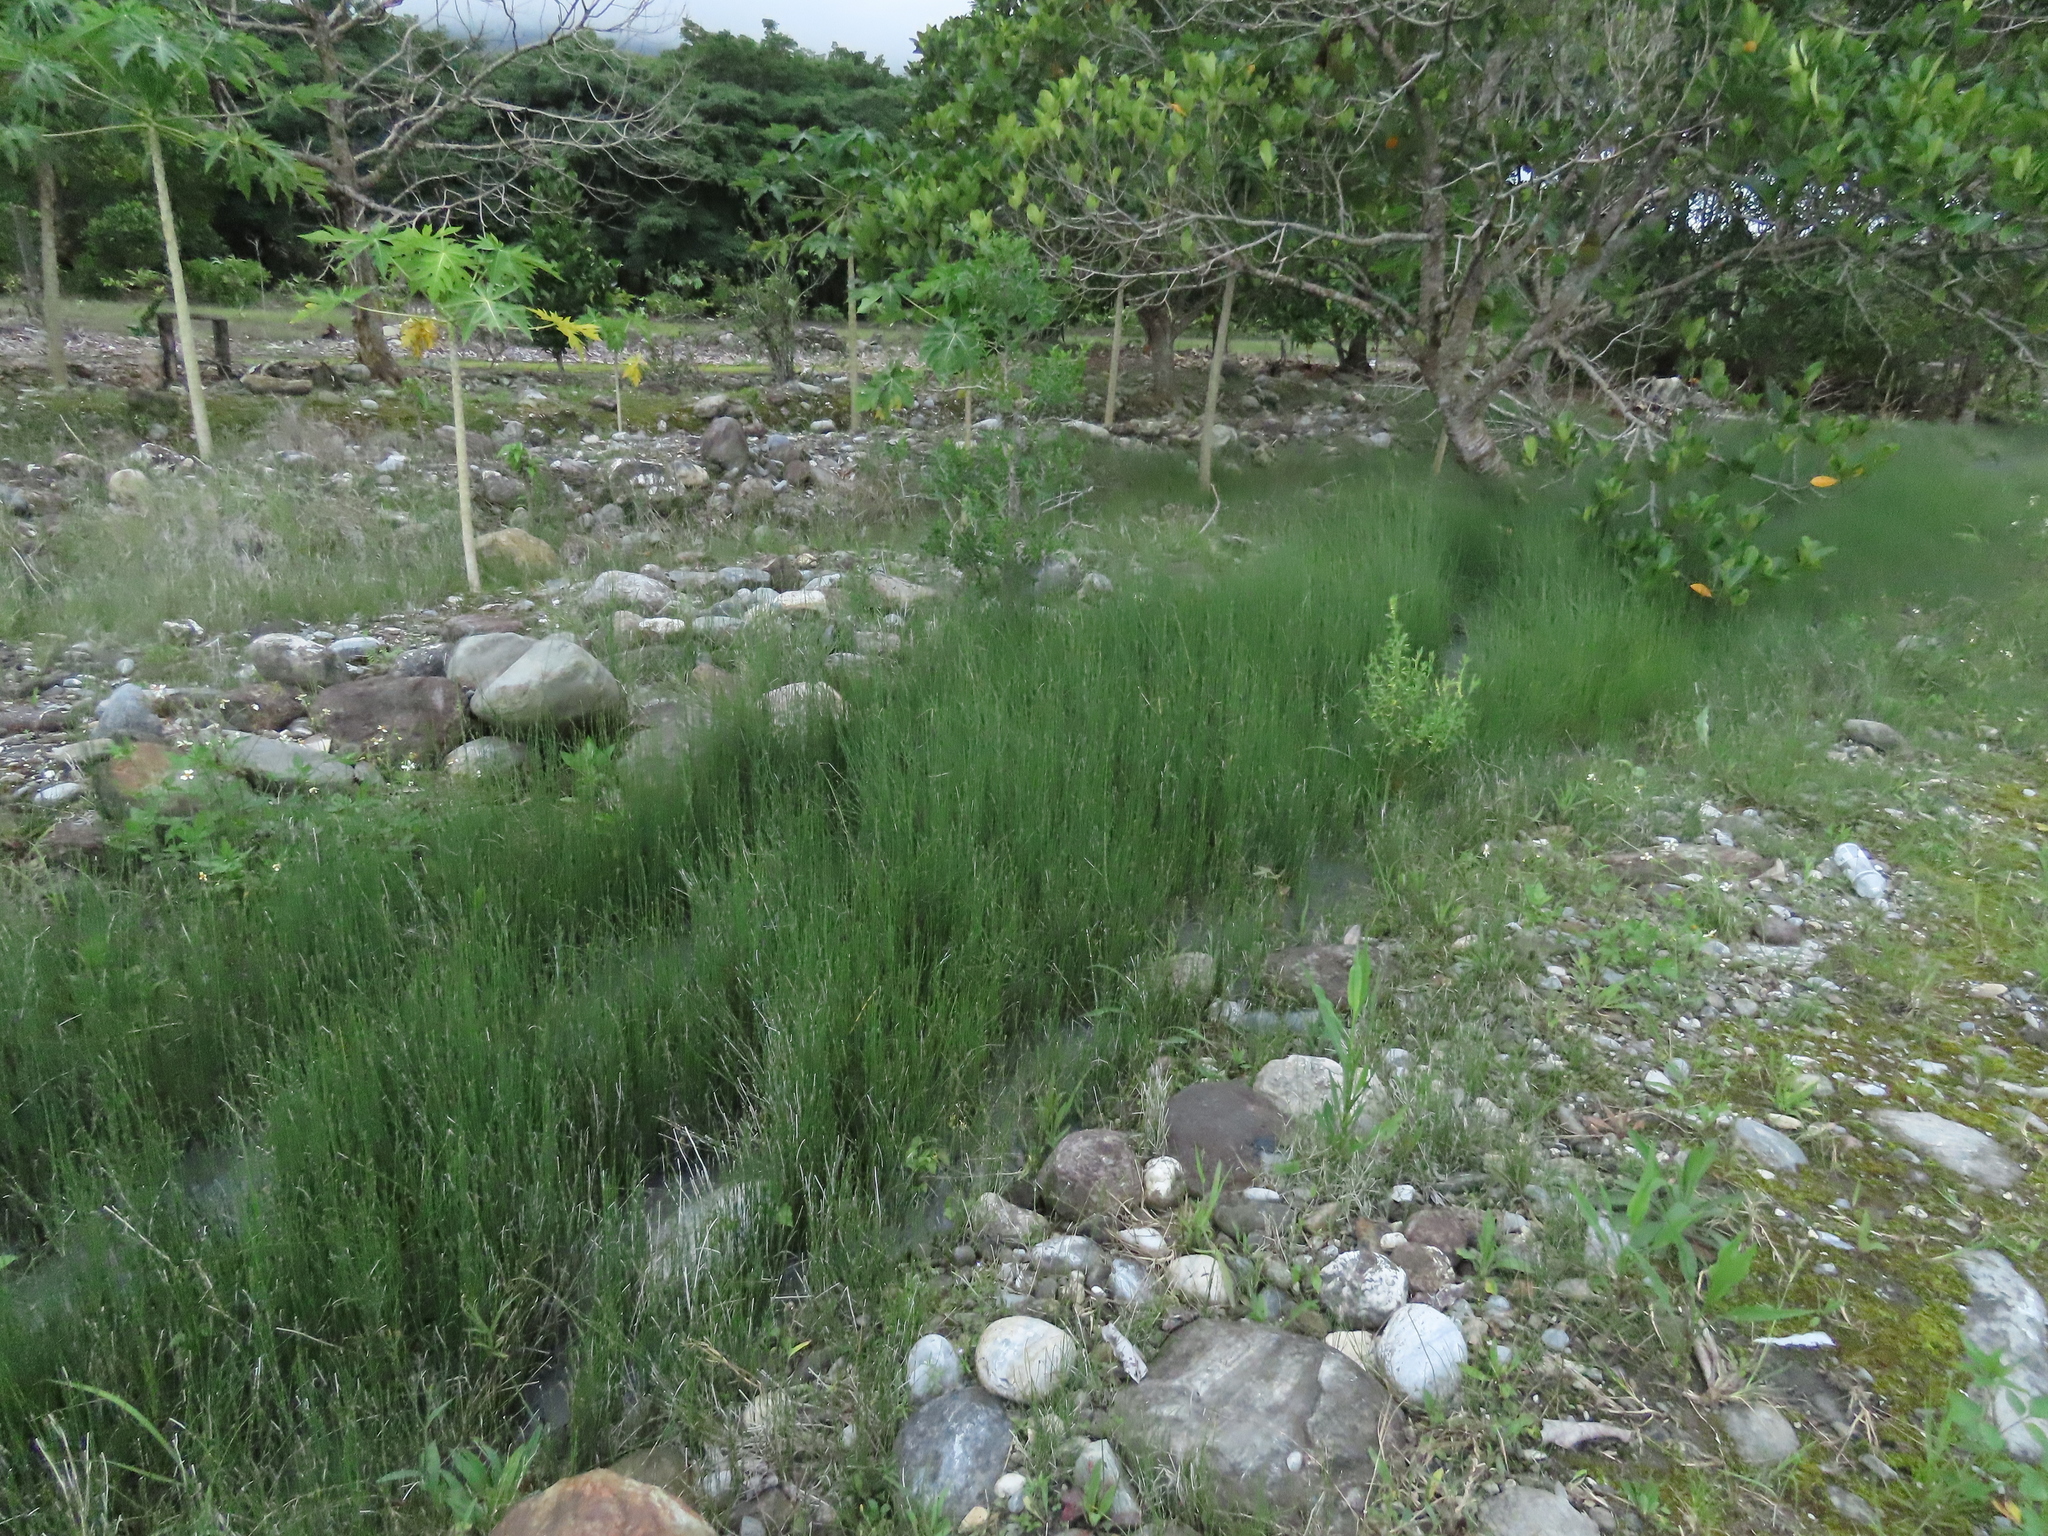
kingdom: Plantae
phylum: Tracheophyta
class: Polypodiopsida
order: Equisetales
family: Equisetaceae
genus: Equisetum
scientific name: Equisetum ramosissimum
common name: Branched horsetail
